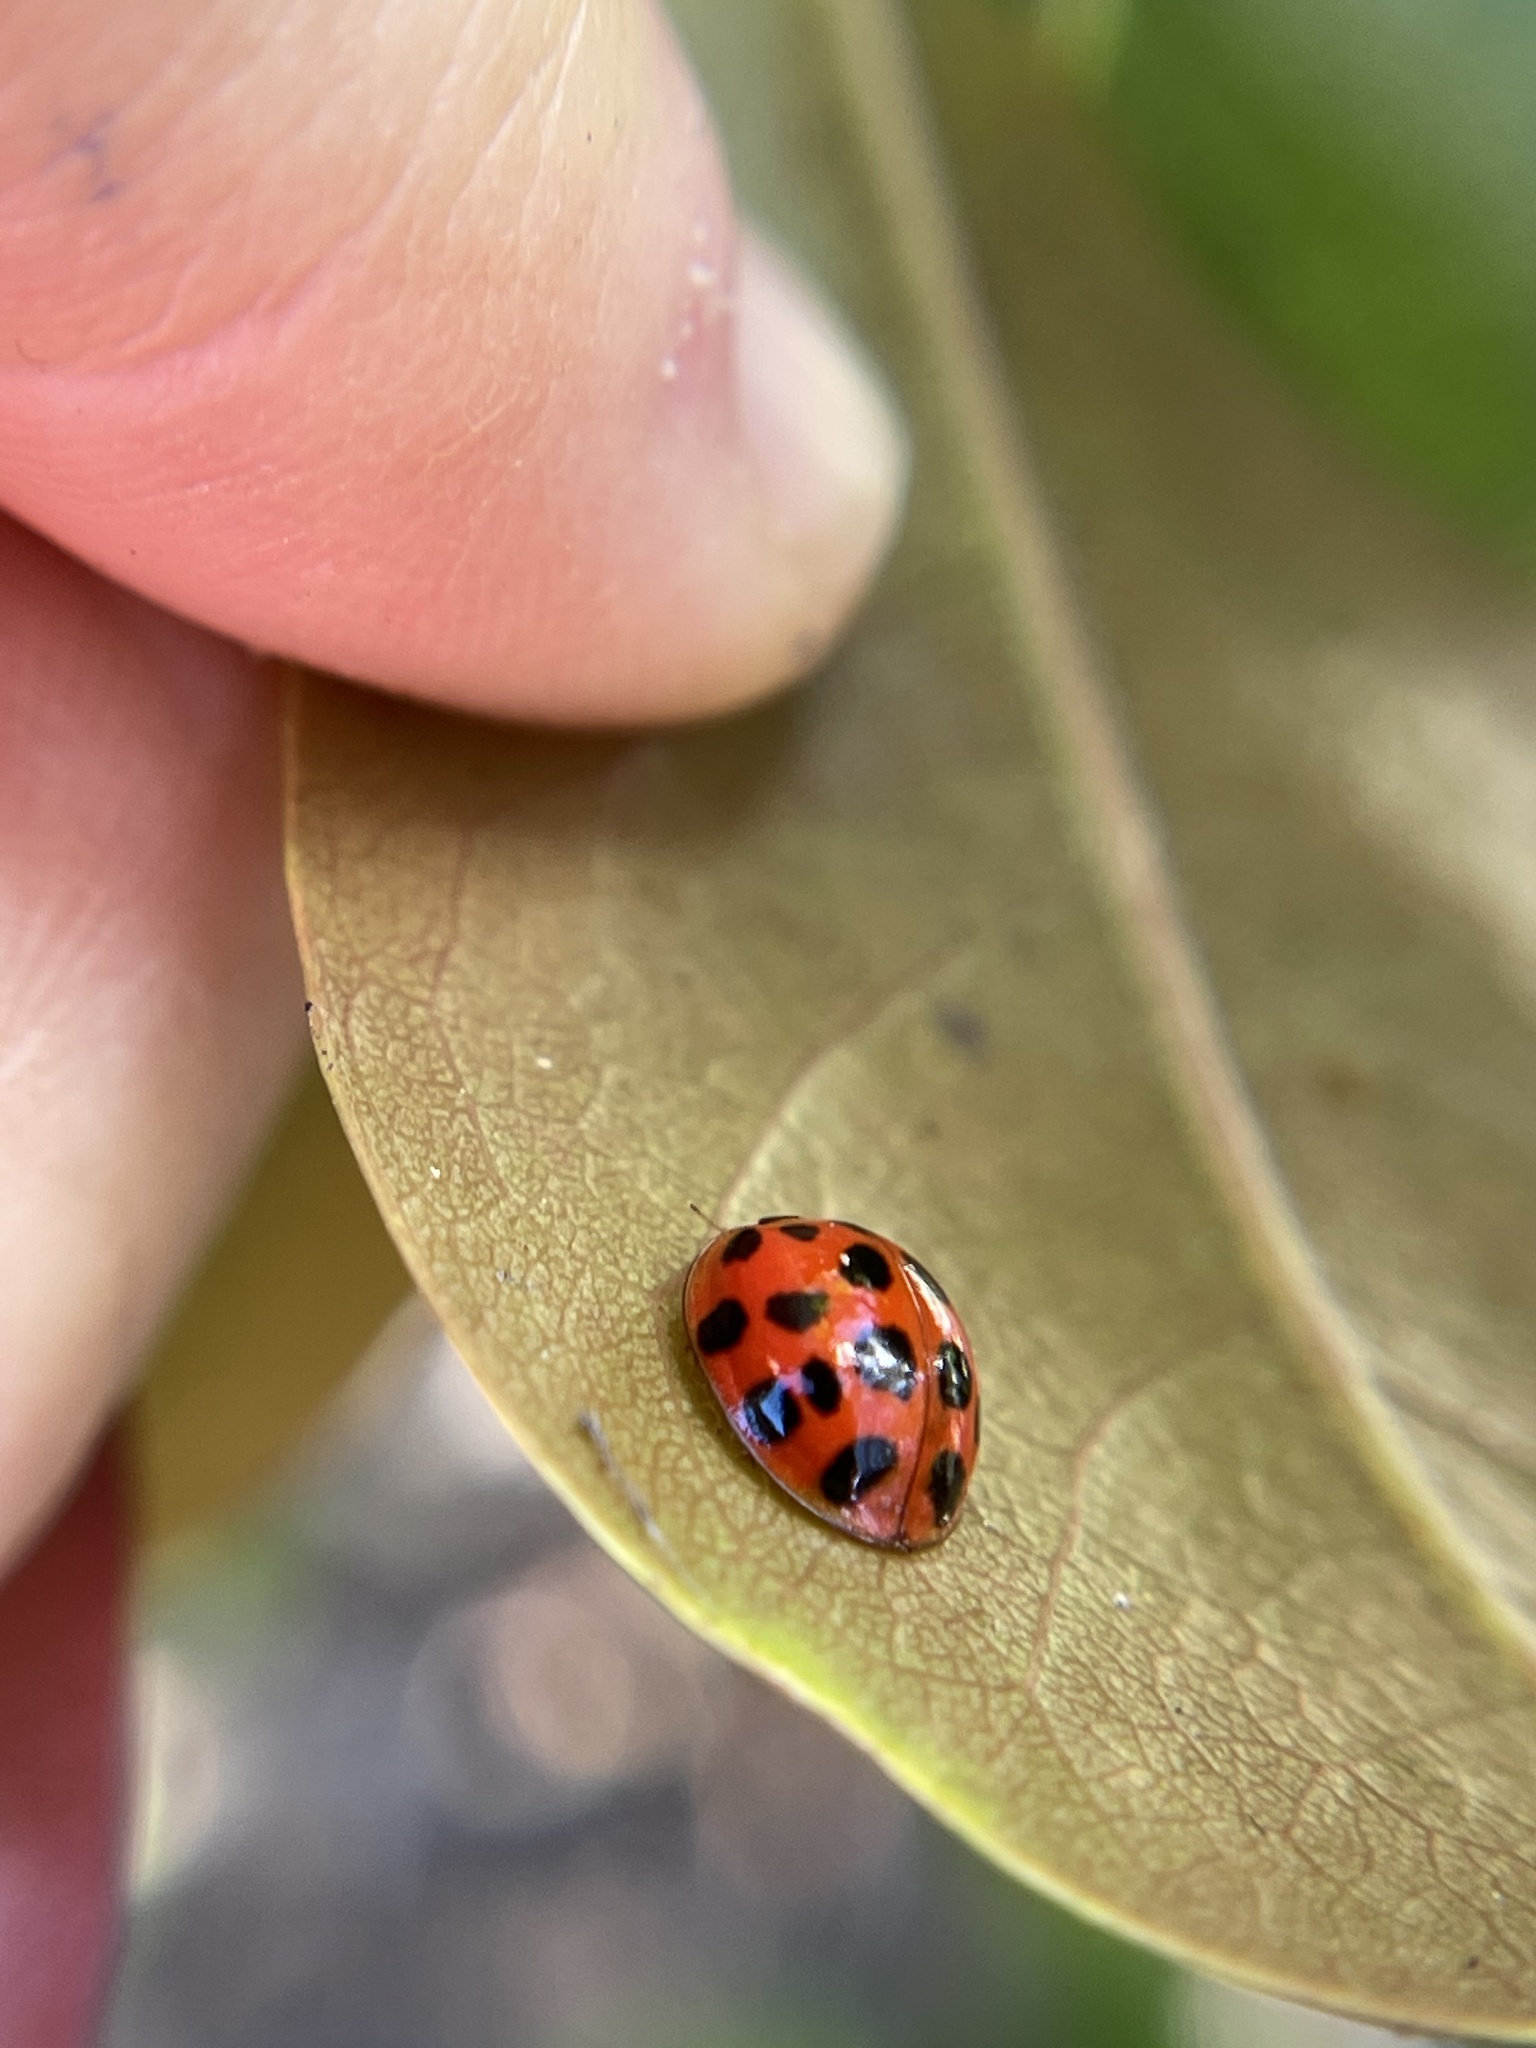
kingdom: Animalia
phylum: Arthropoda
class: Insecta
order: Coleoptera
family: Coccinellidae
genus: Harmonia
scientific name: Harmonia axyridis
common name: Harlequin ladybird
